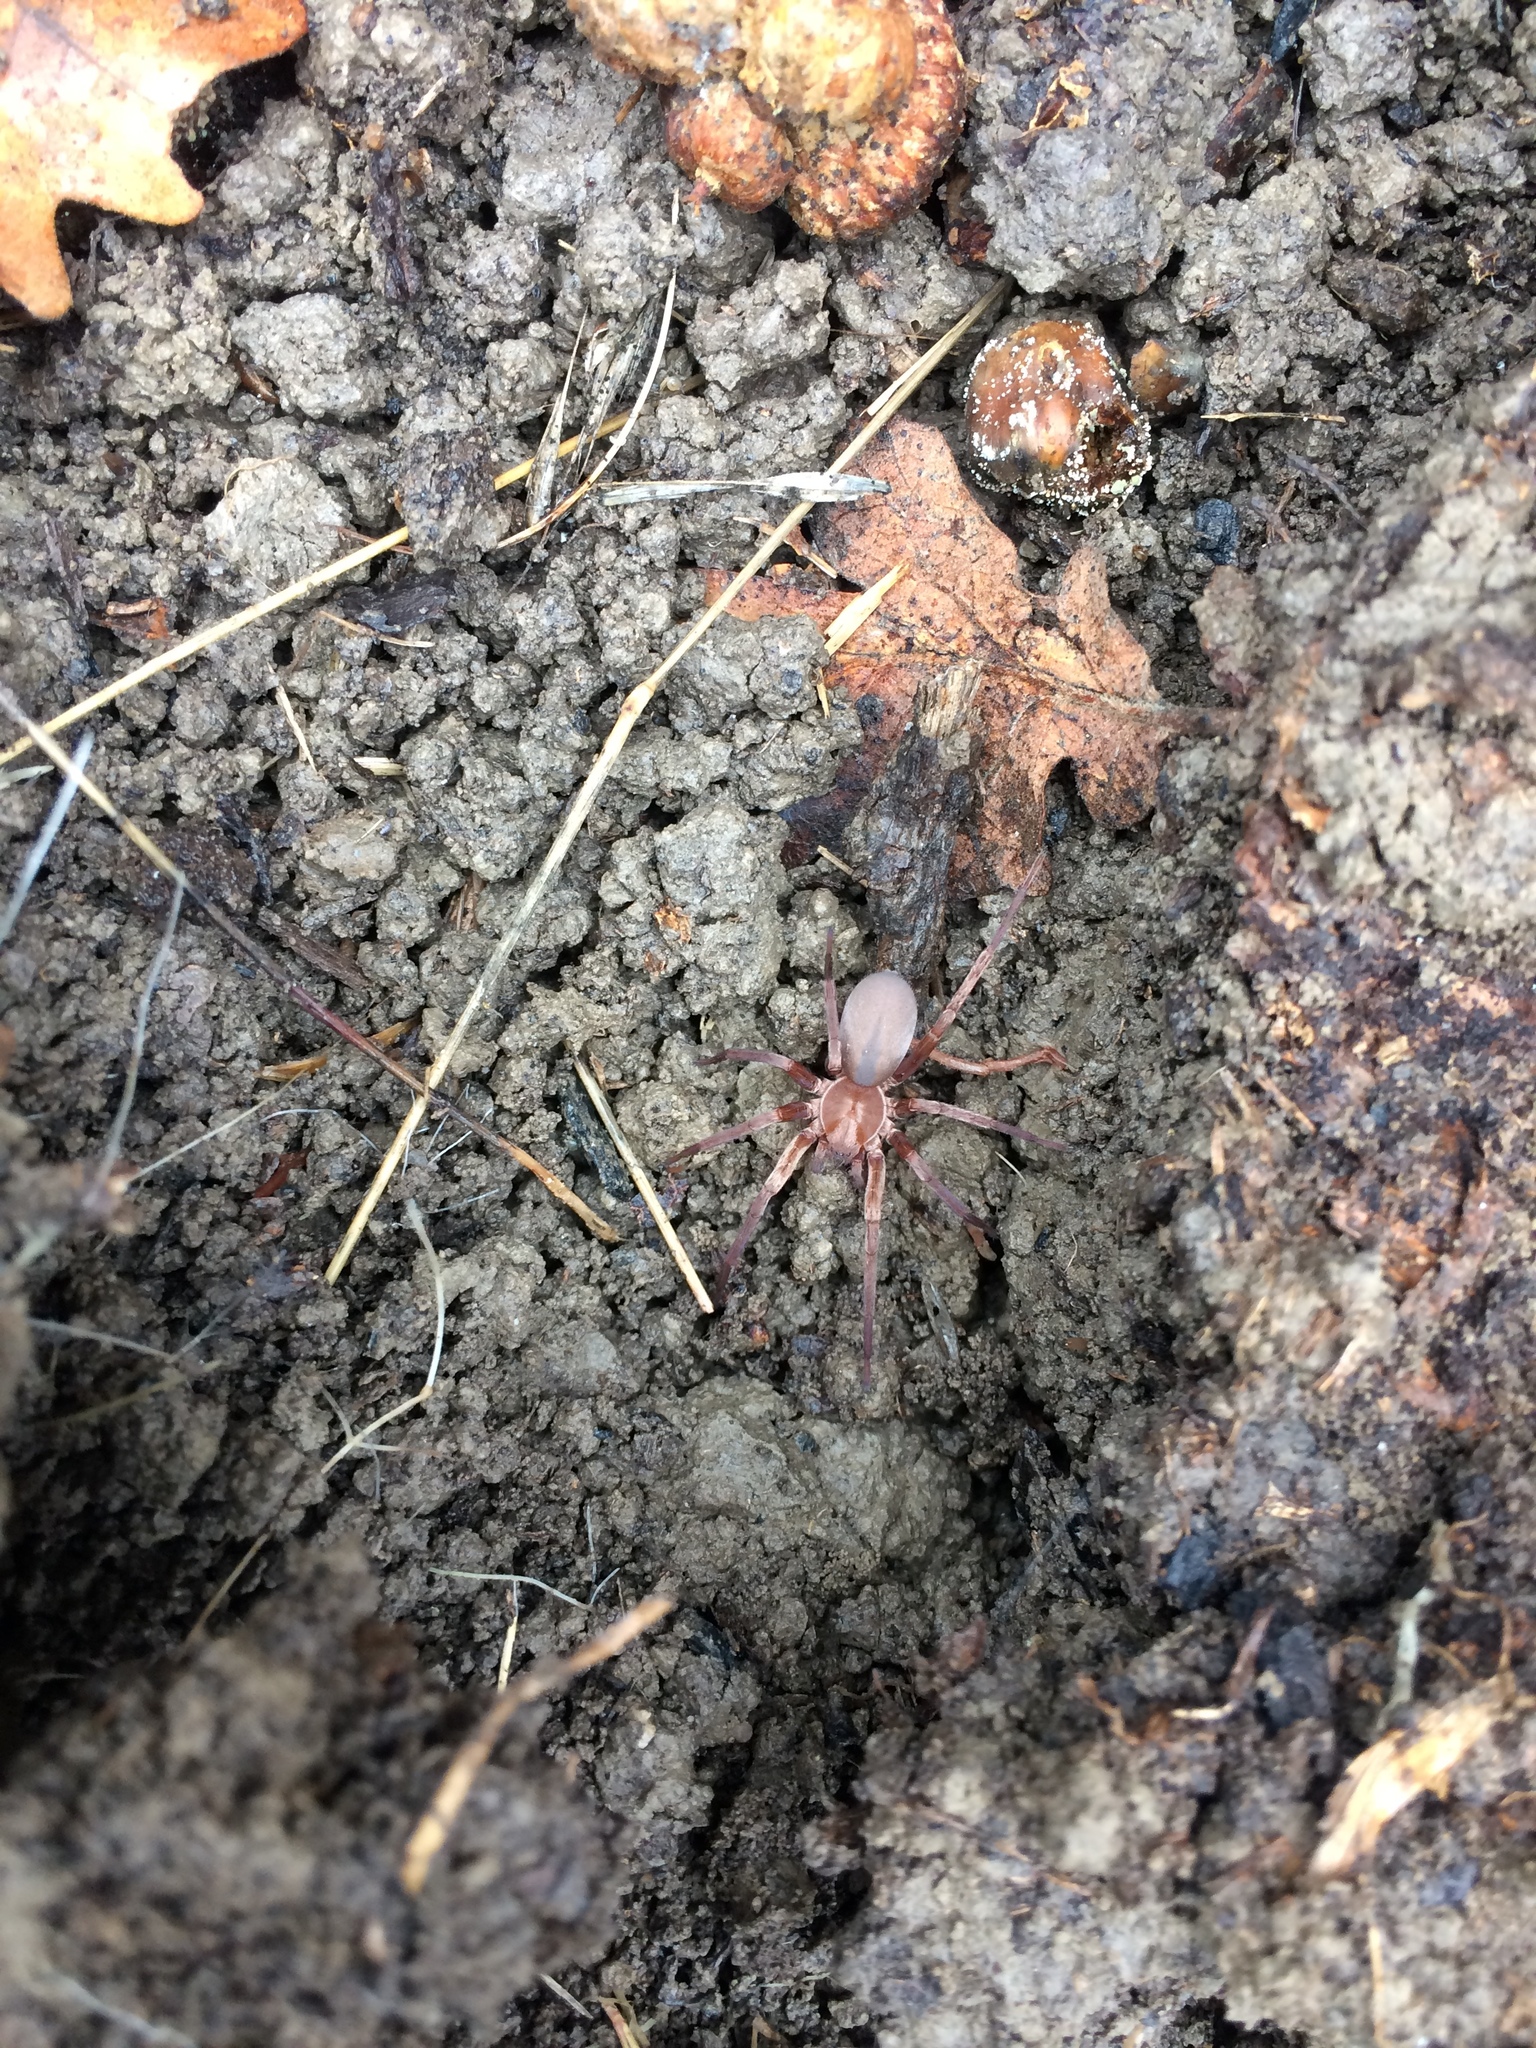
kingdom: Animalia
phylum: Arthropoda
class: Arachnida
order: Araneae
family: Zoropsidae
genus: Titiotus
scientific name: Titiotus
